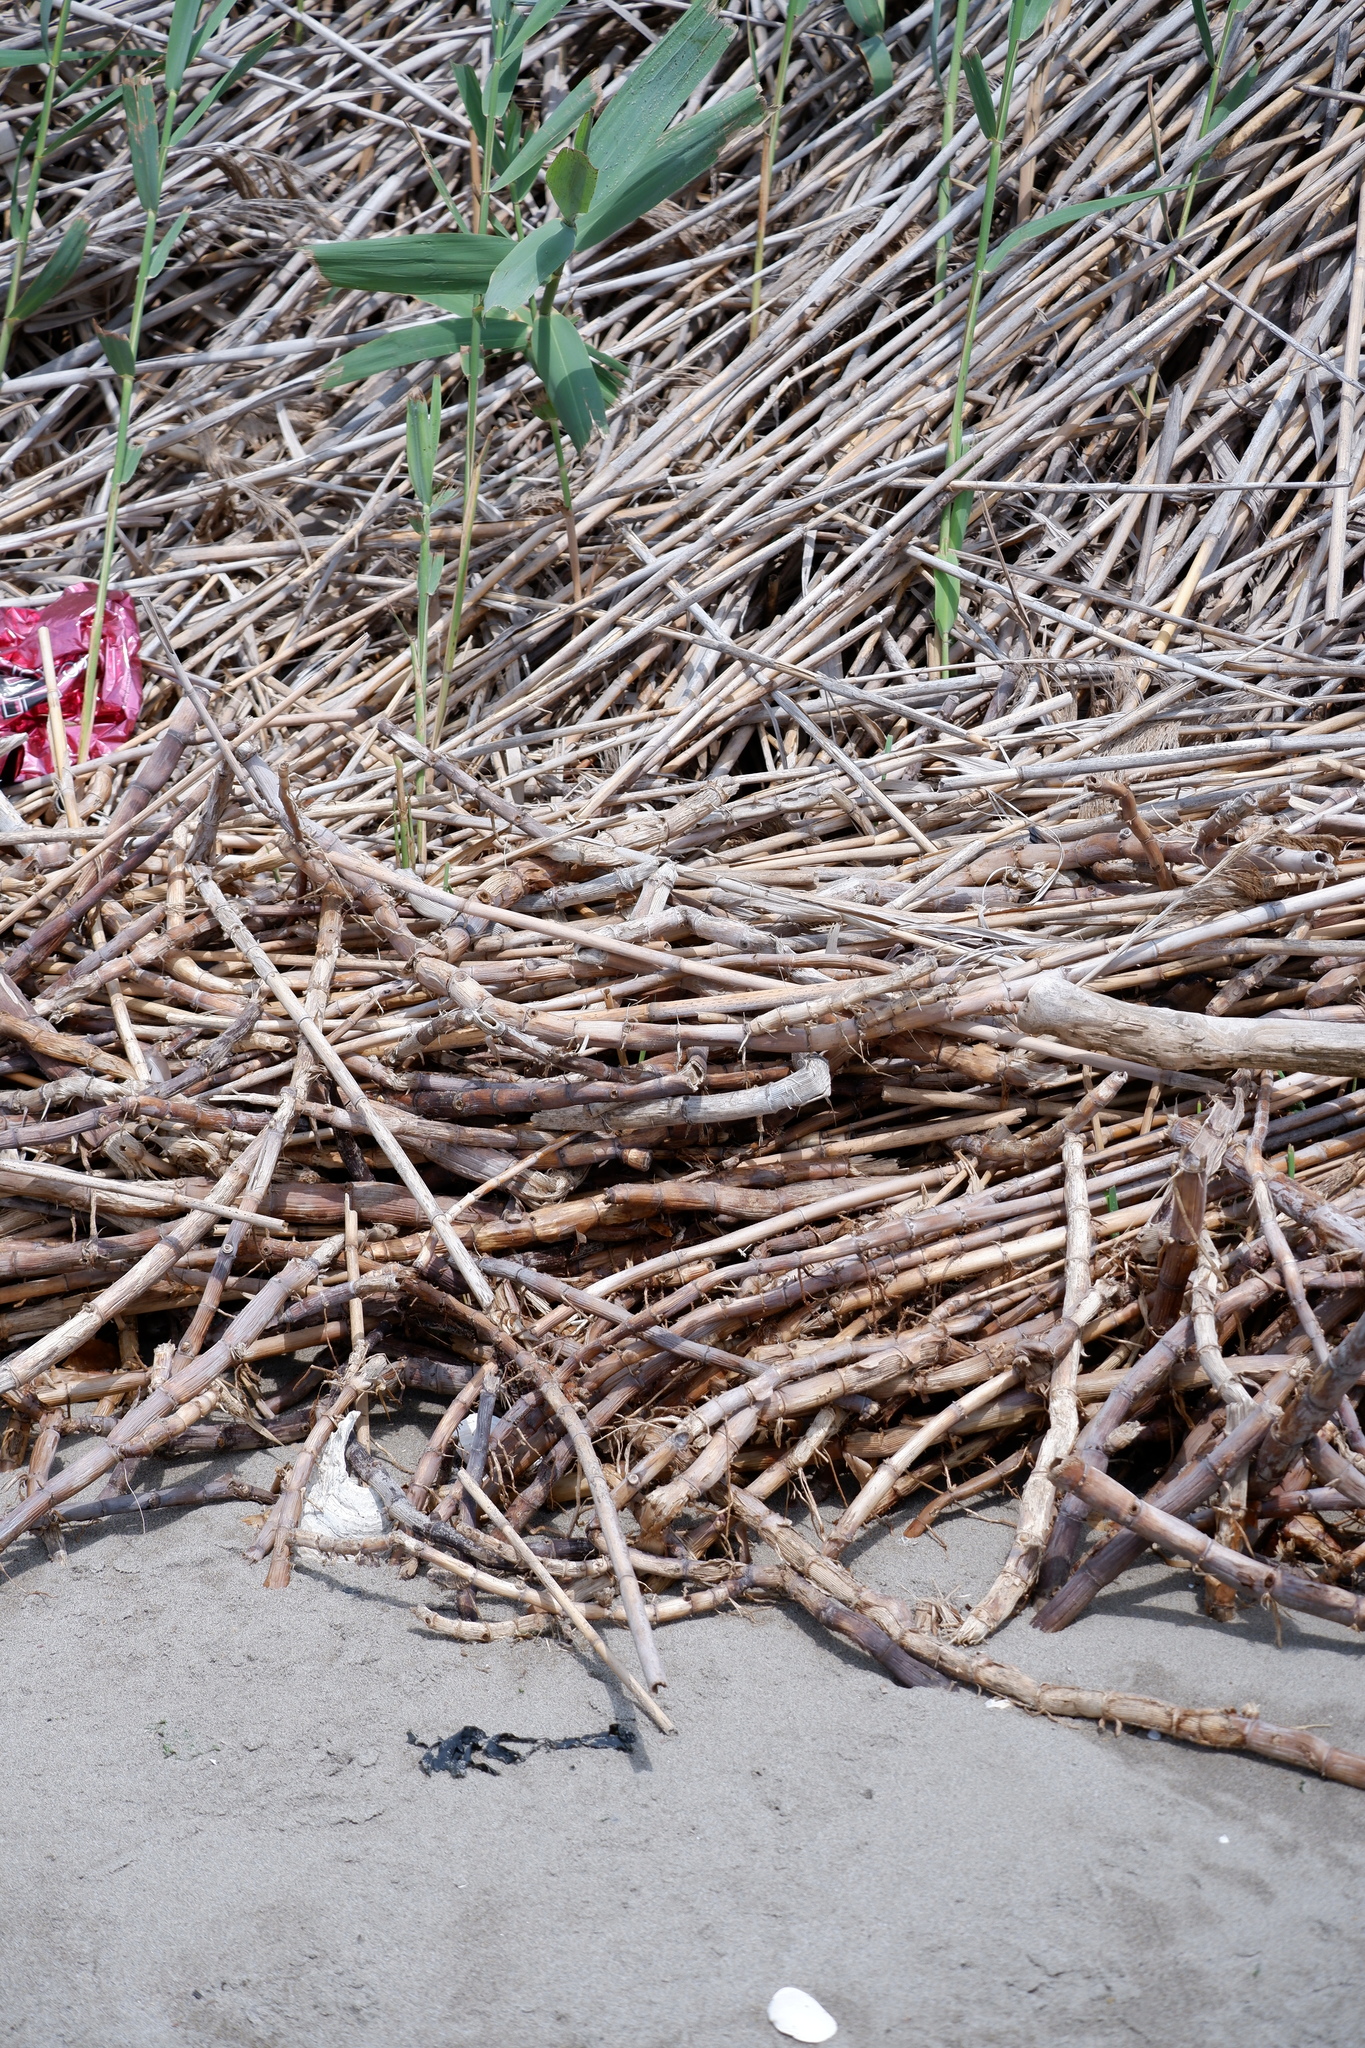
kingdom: Plantae
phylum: Tracheophyta
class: Liliopsida
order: Poales
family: Poaceae
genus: Phragmites
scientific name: Phragmites australis
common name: Common reed
